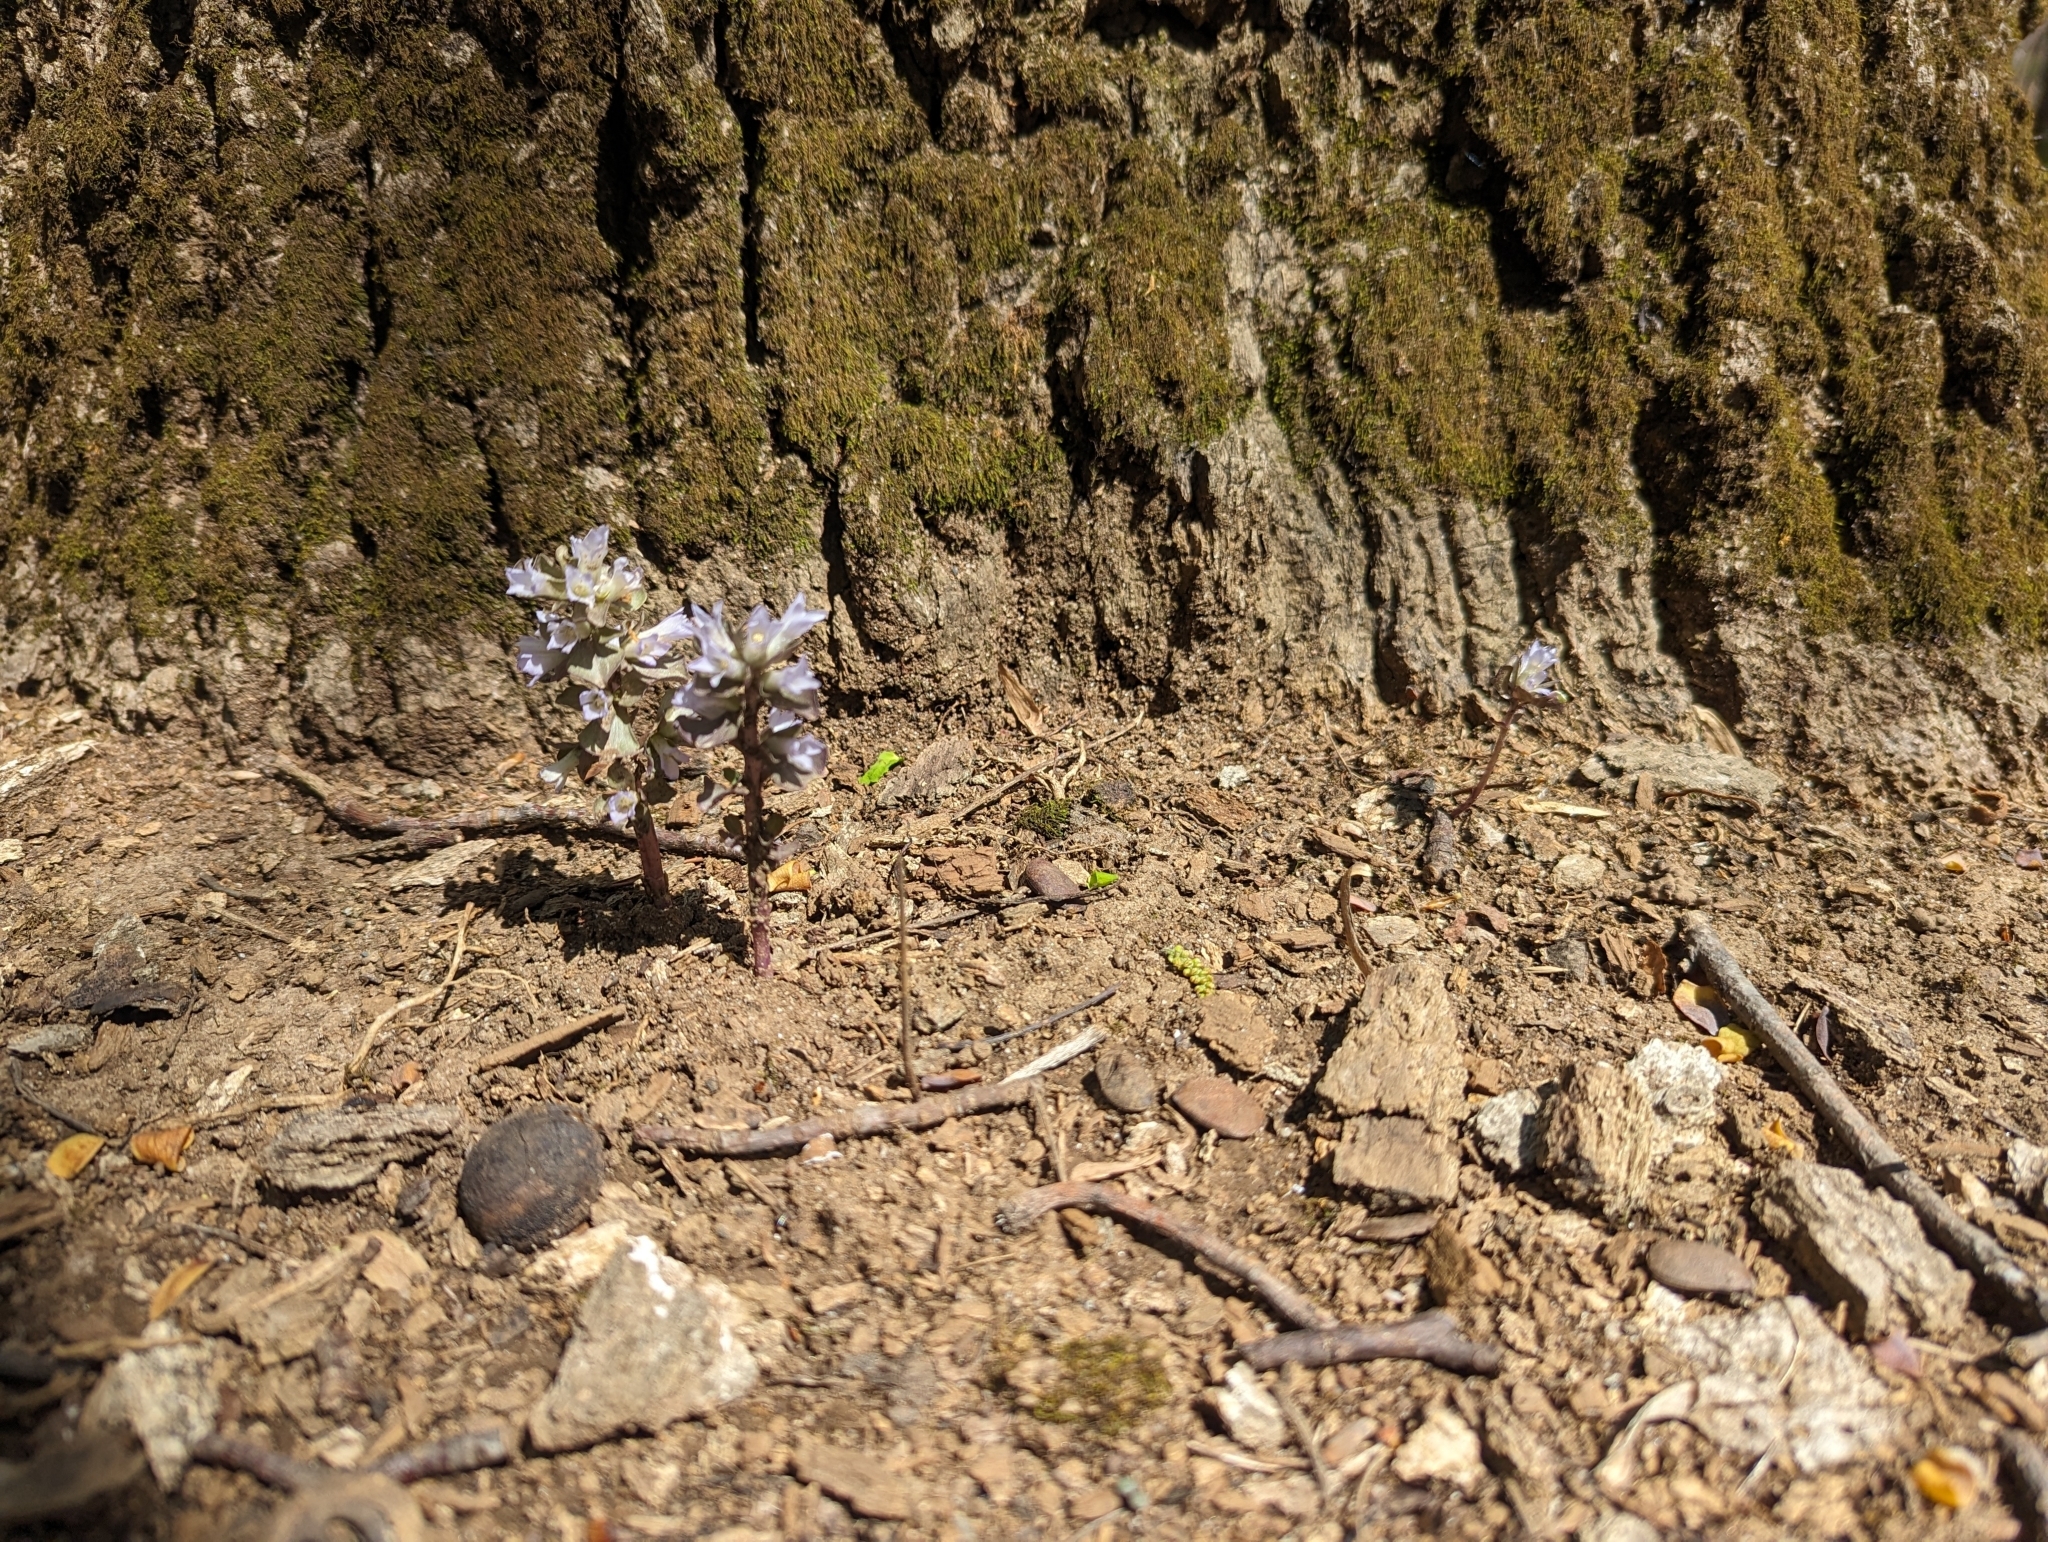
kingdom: Plantae
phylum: Tracheophyta
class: Magnoliopsida
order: Gentianales
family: Gentianaceae
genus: Obolaria
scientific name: Obolaria virginica
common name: Pennywort
